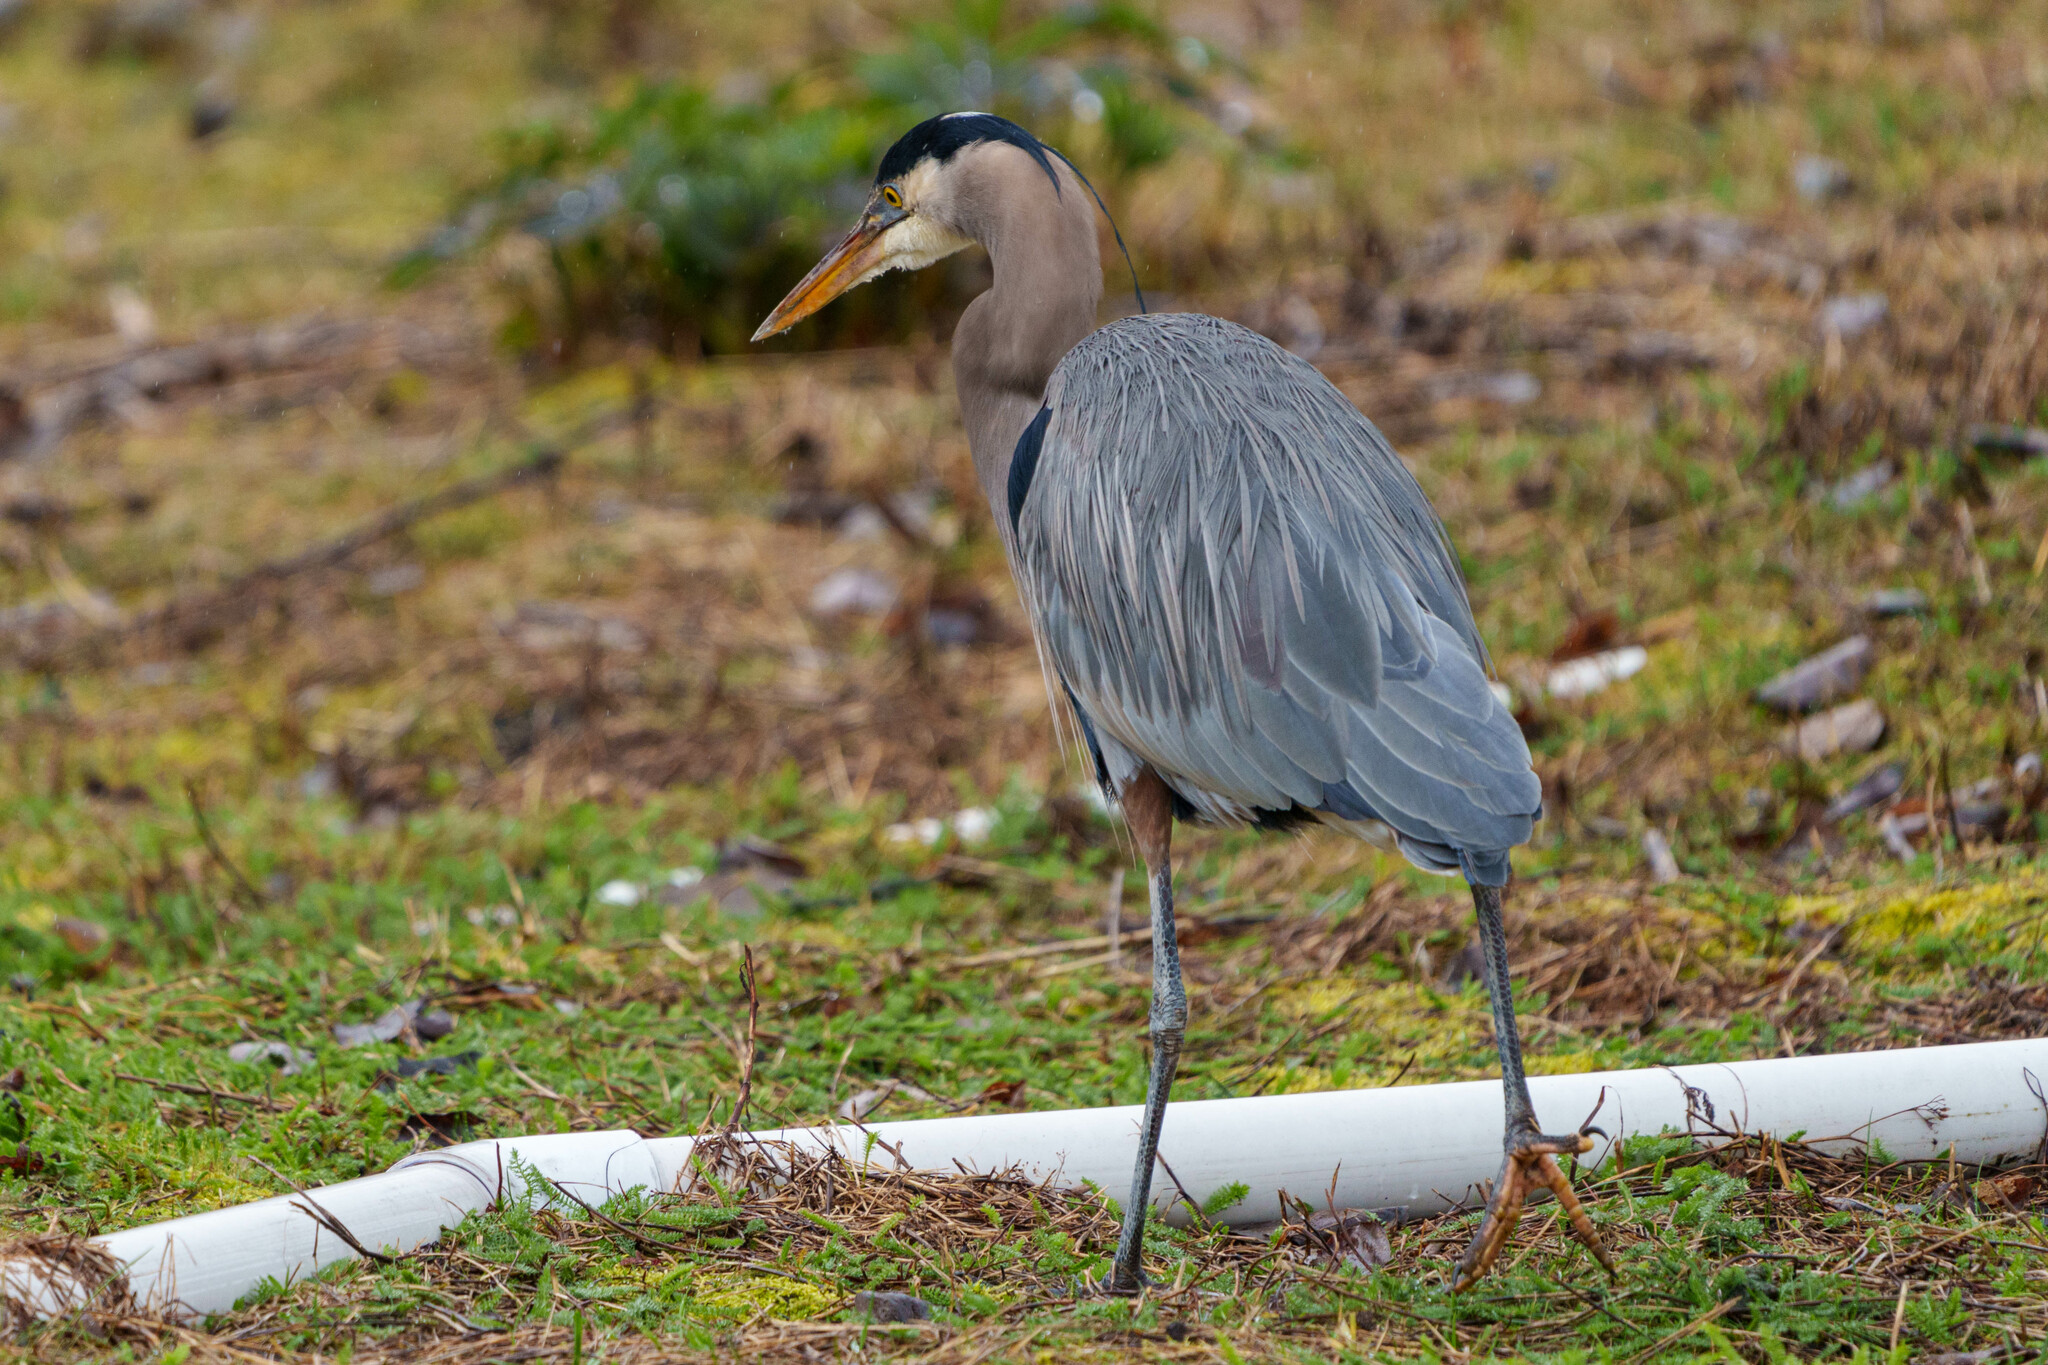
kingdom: Animalia
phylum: Chordata
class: Aves
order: Pelecaniformes
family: Ardeidae
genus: Ardea
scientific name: Ardea herodias
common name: Great blue heron
